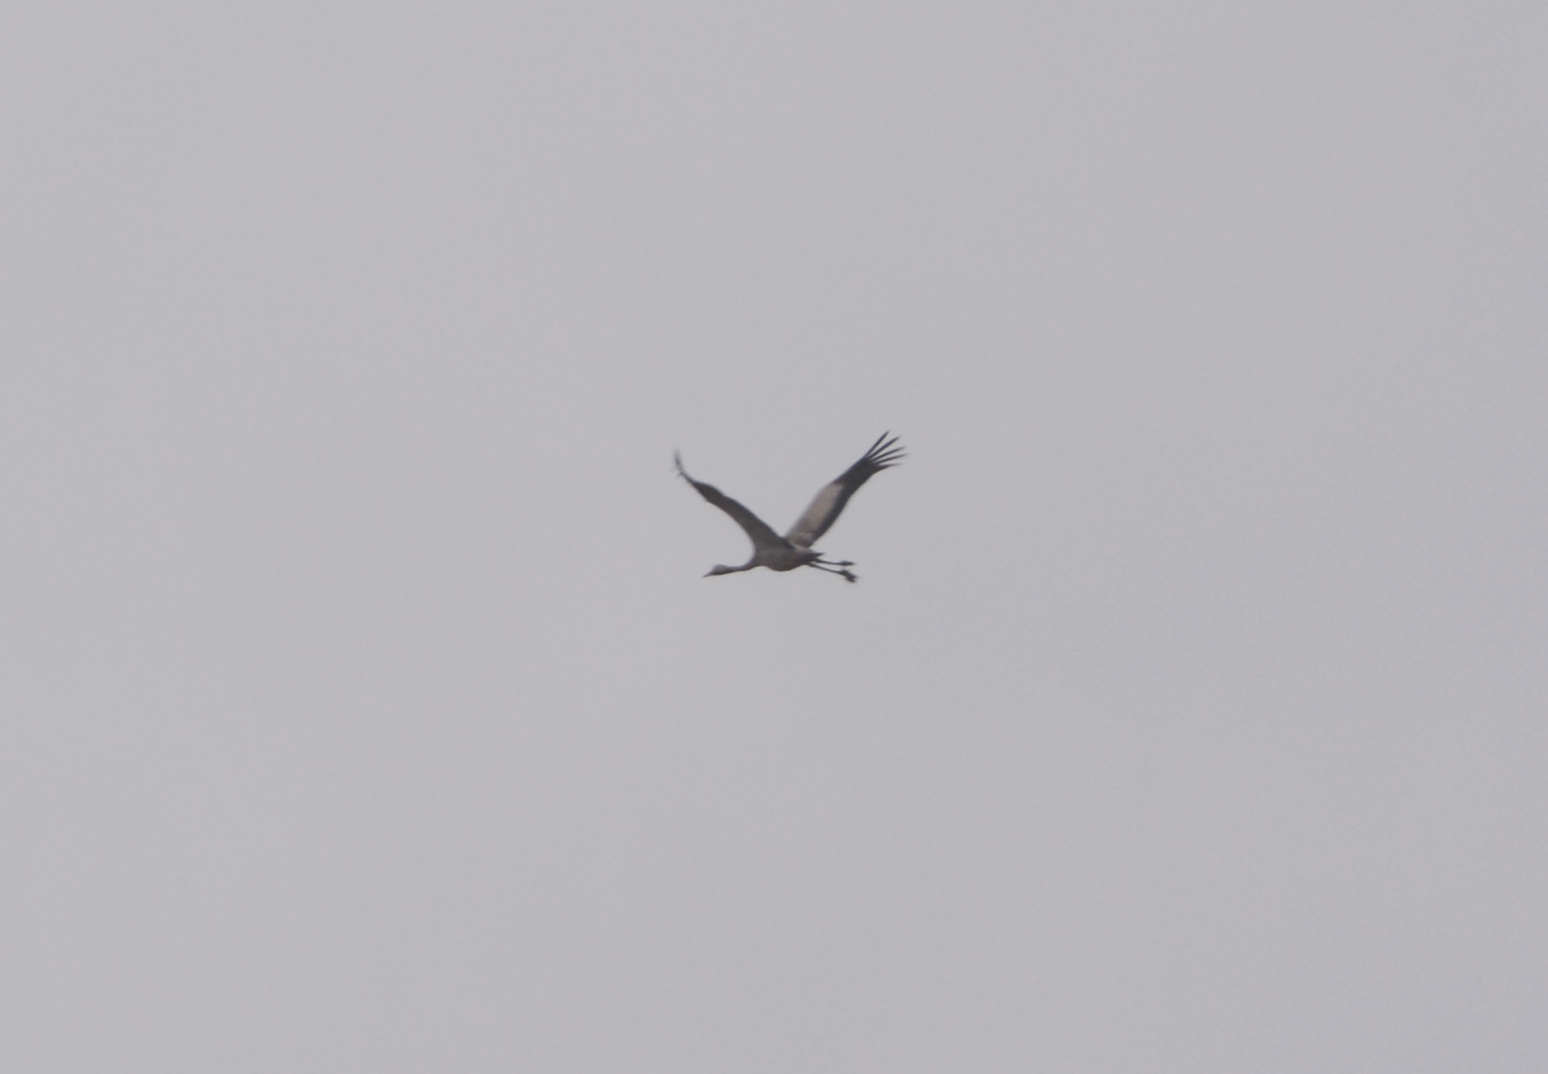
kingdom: Animalia
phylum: Chordata
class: Aves
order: Gruiformes
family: Gruidae
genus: Grus
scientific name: Grus grus
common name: Common crane
